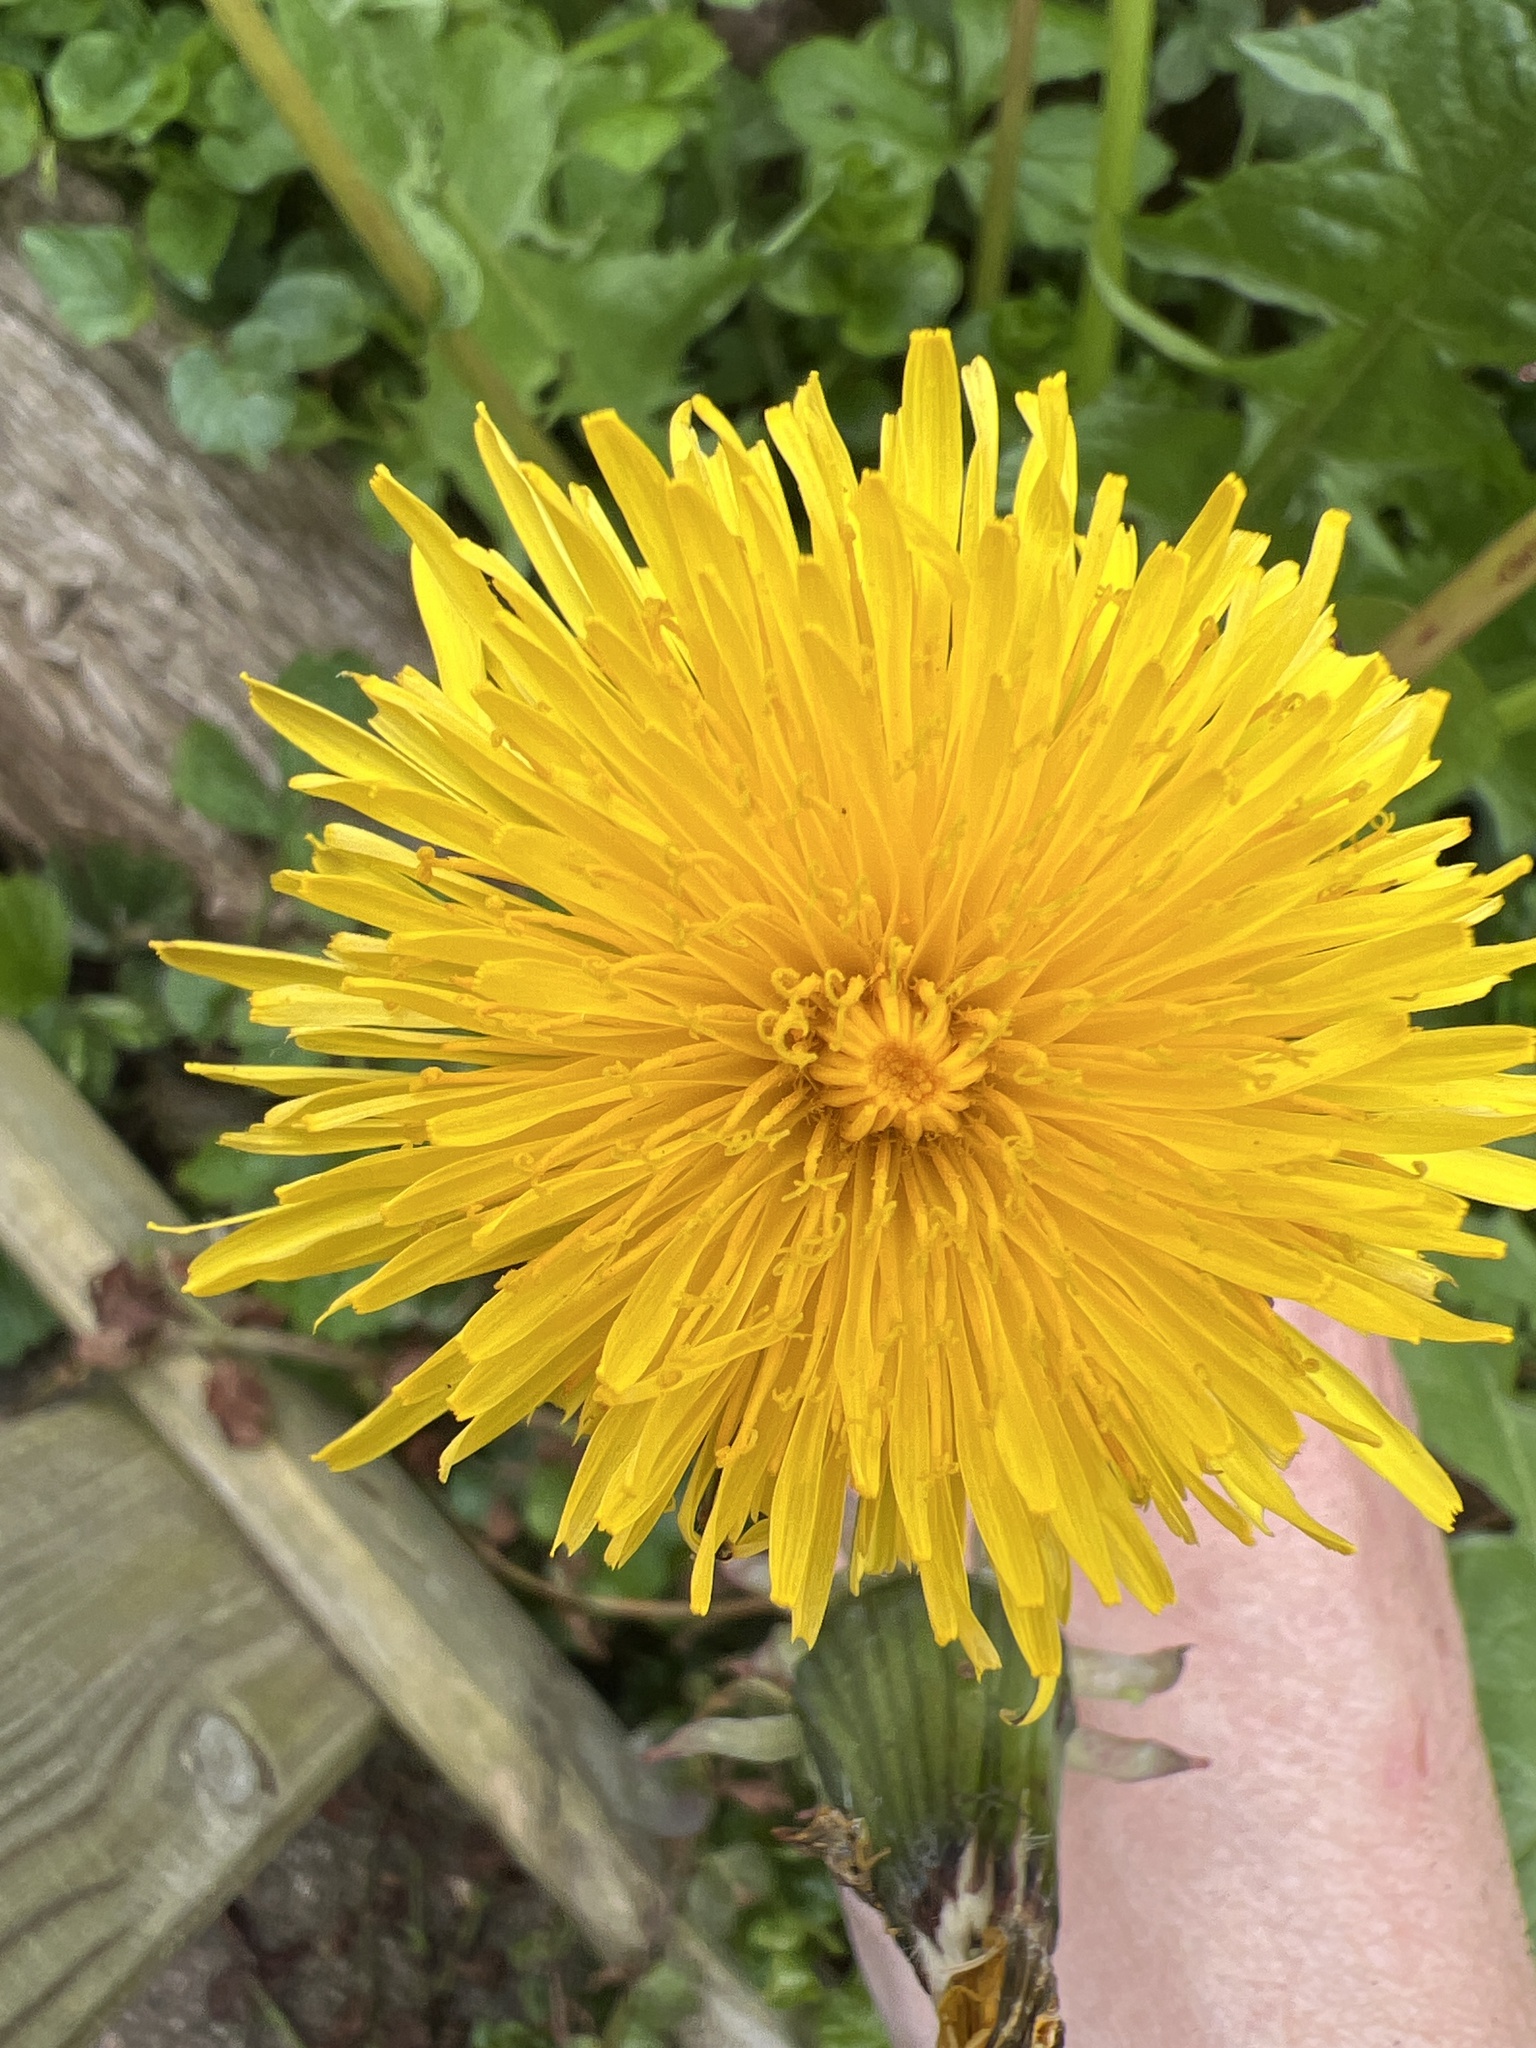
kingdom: Plantae
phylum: Tracheophyta
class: Magnoliopsida
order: Asterales
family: Asteraceae
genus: Taraxacum
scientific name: Taraxacum officinale
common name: Common dandelion
